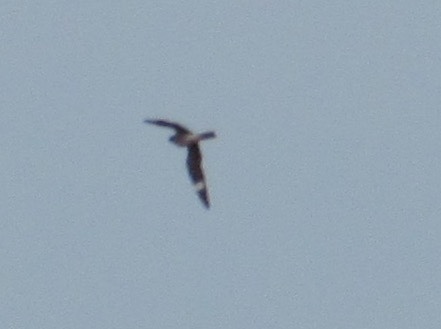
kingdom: Animalia
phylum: Chordata
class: Aves
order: Caprimulgiformes
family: Caprimulgidae
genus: Chordeiles
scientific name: Chordeiles minor
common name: Common nighthawk
